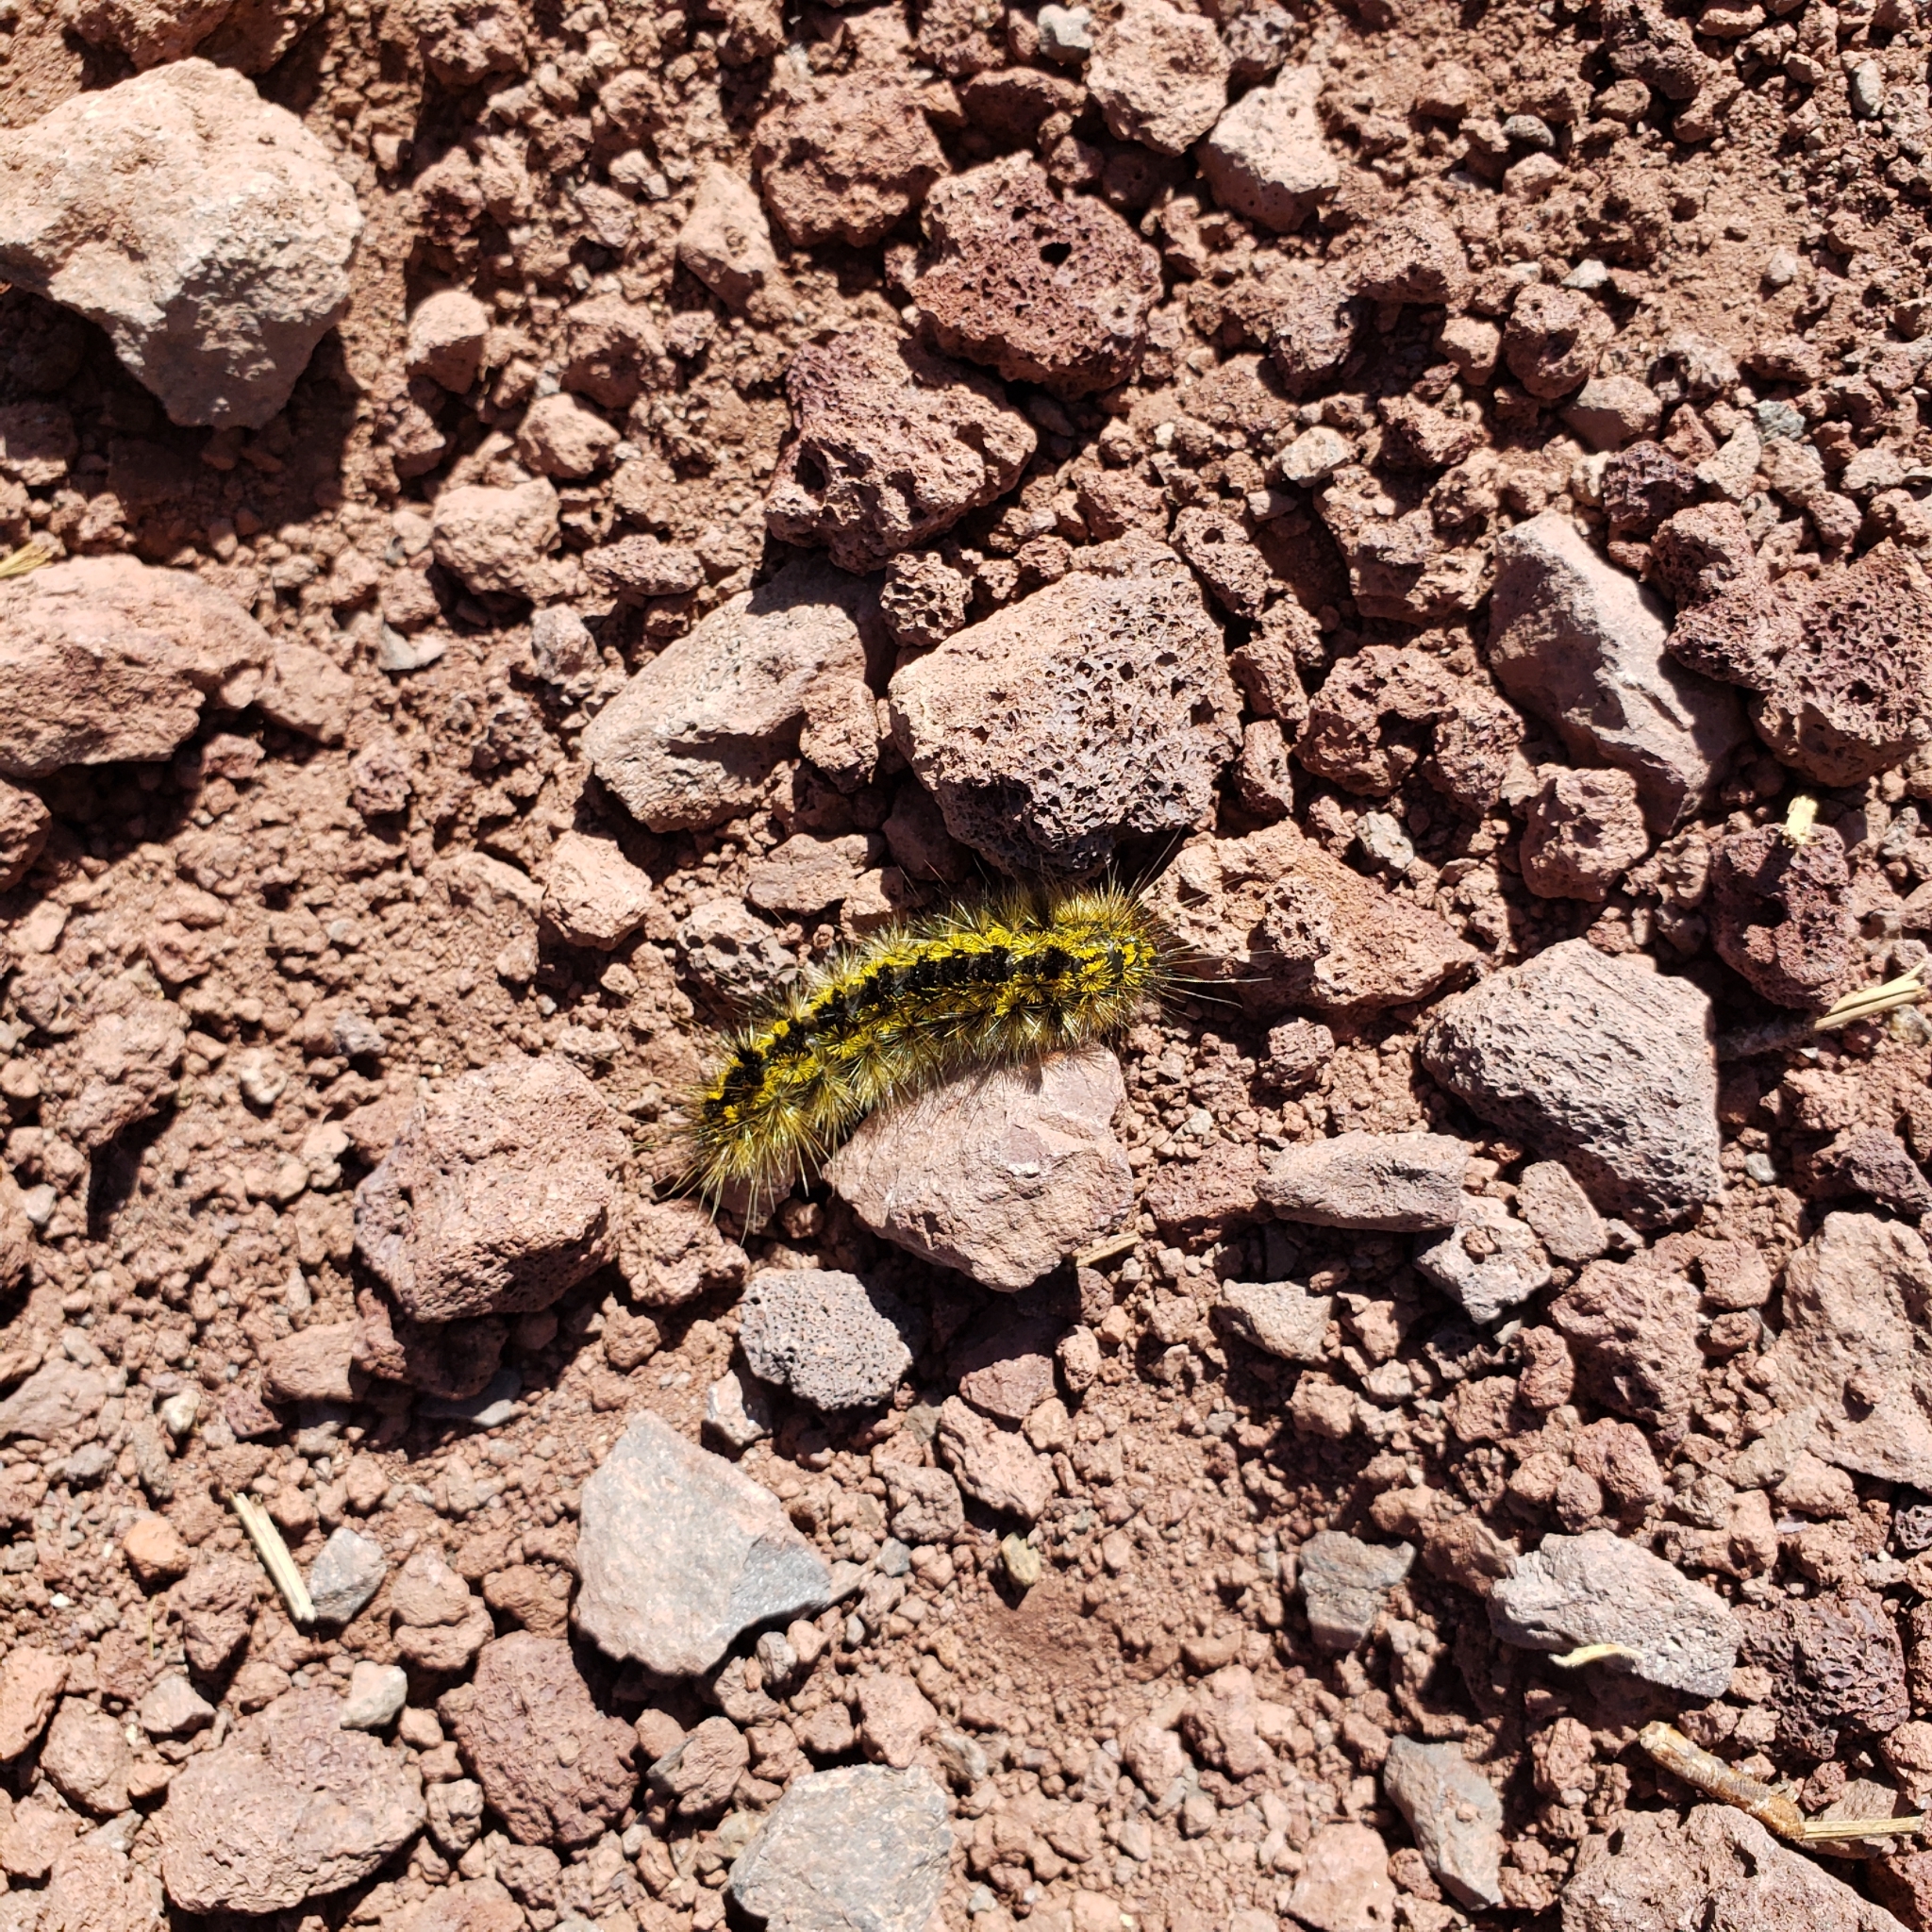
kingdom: Animalia
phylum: Arthropoda
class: Insecta
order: Lepidoptera
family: Erebidae
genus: Lophocampa
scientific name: Lophocampa argentata
